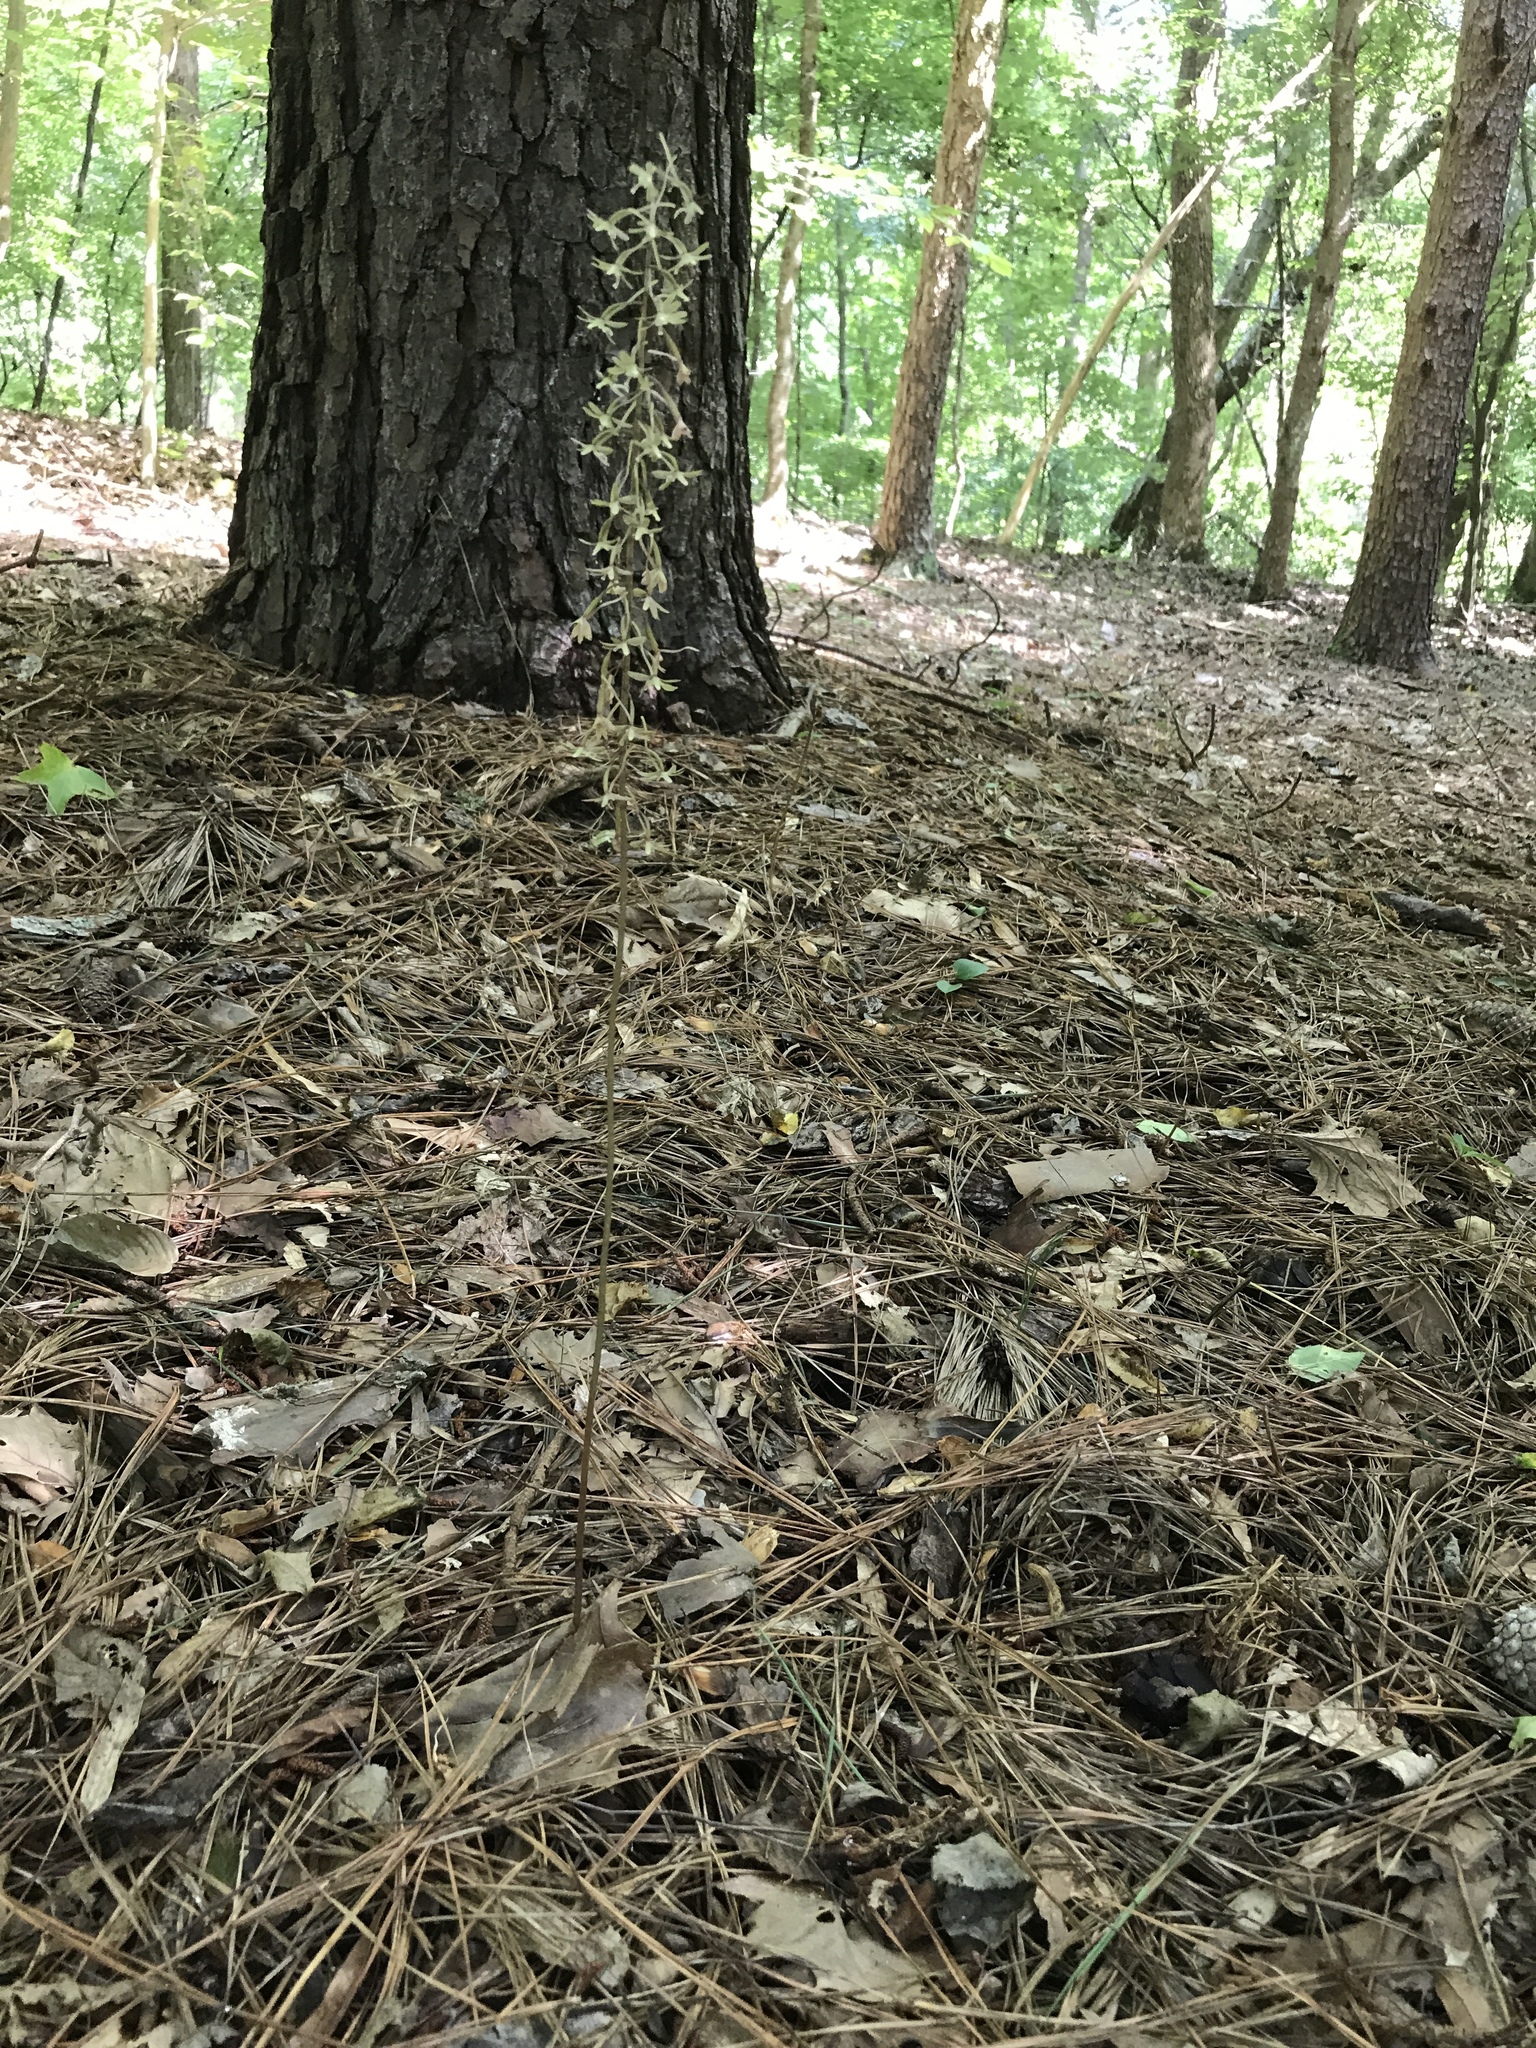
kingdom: Plantae
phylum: Tracheophyta
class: Liliopsida
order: Asparagales
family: Orchidaceae
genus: Tipularia
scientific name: Tipularia discolor
